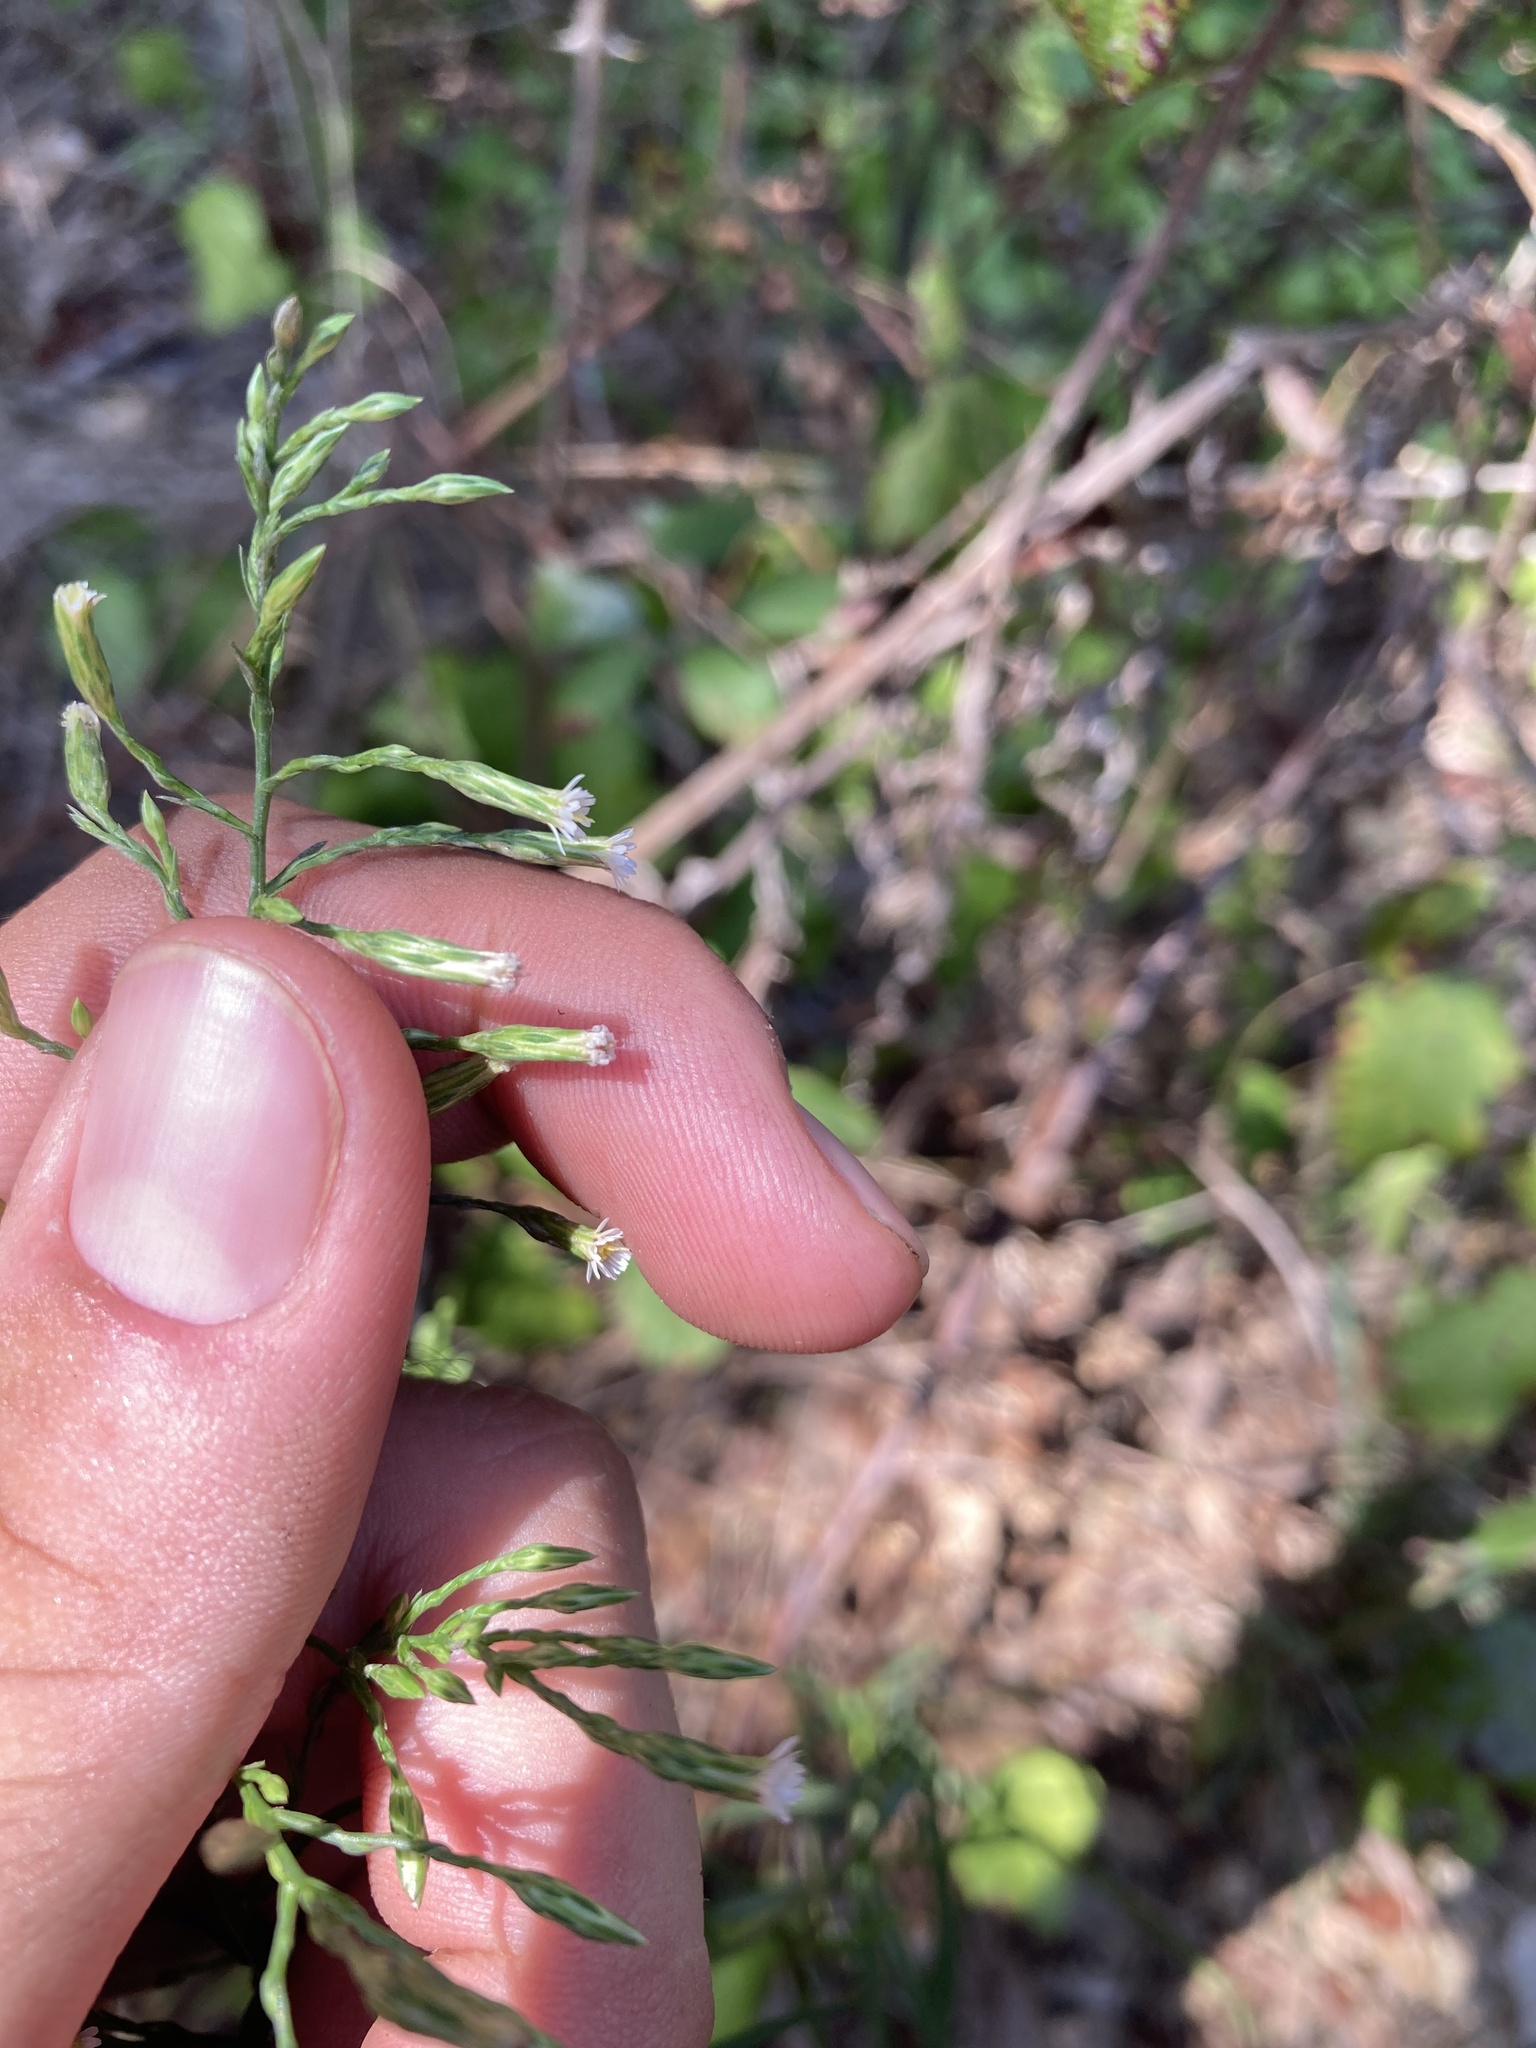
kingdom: Plantae
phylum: Tracheophyta
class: Magnoliopsida
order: Asterales
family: Asteraceae
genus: Symphyotrichum
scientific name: Symphyotrichum squamatum
